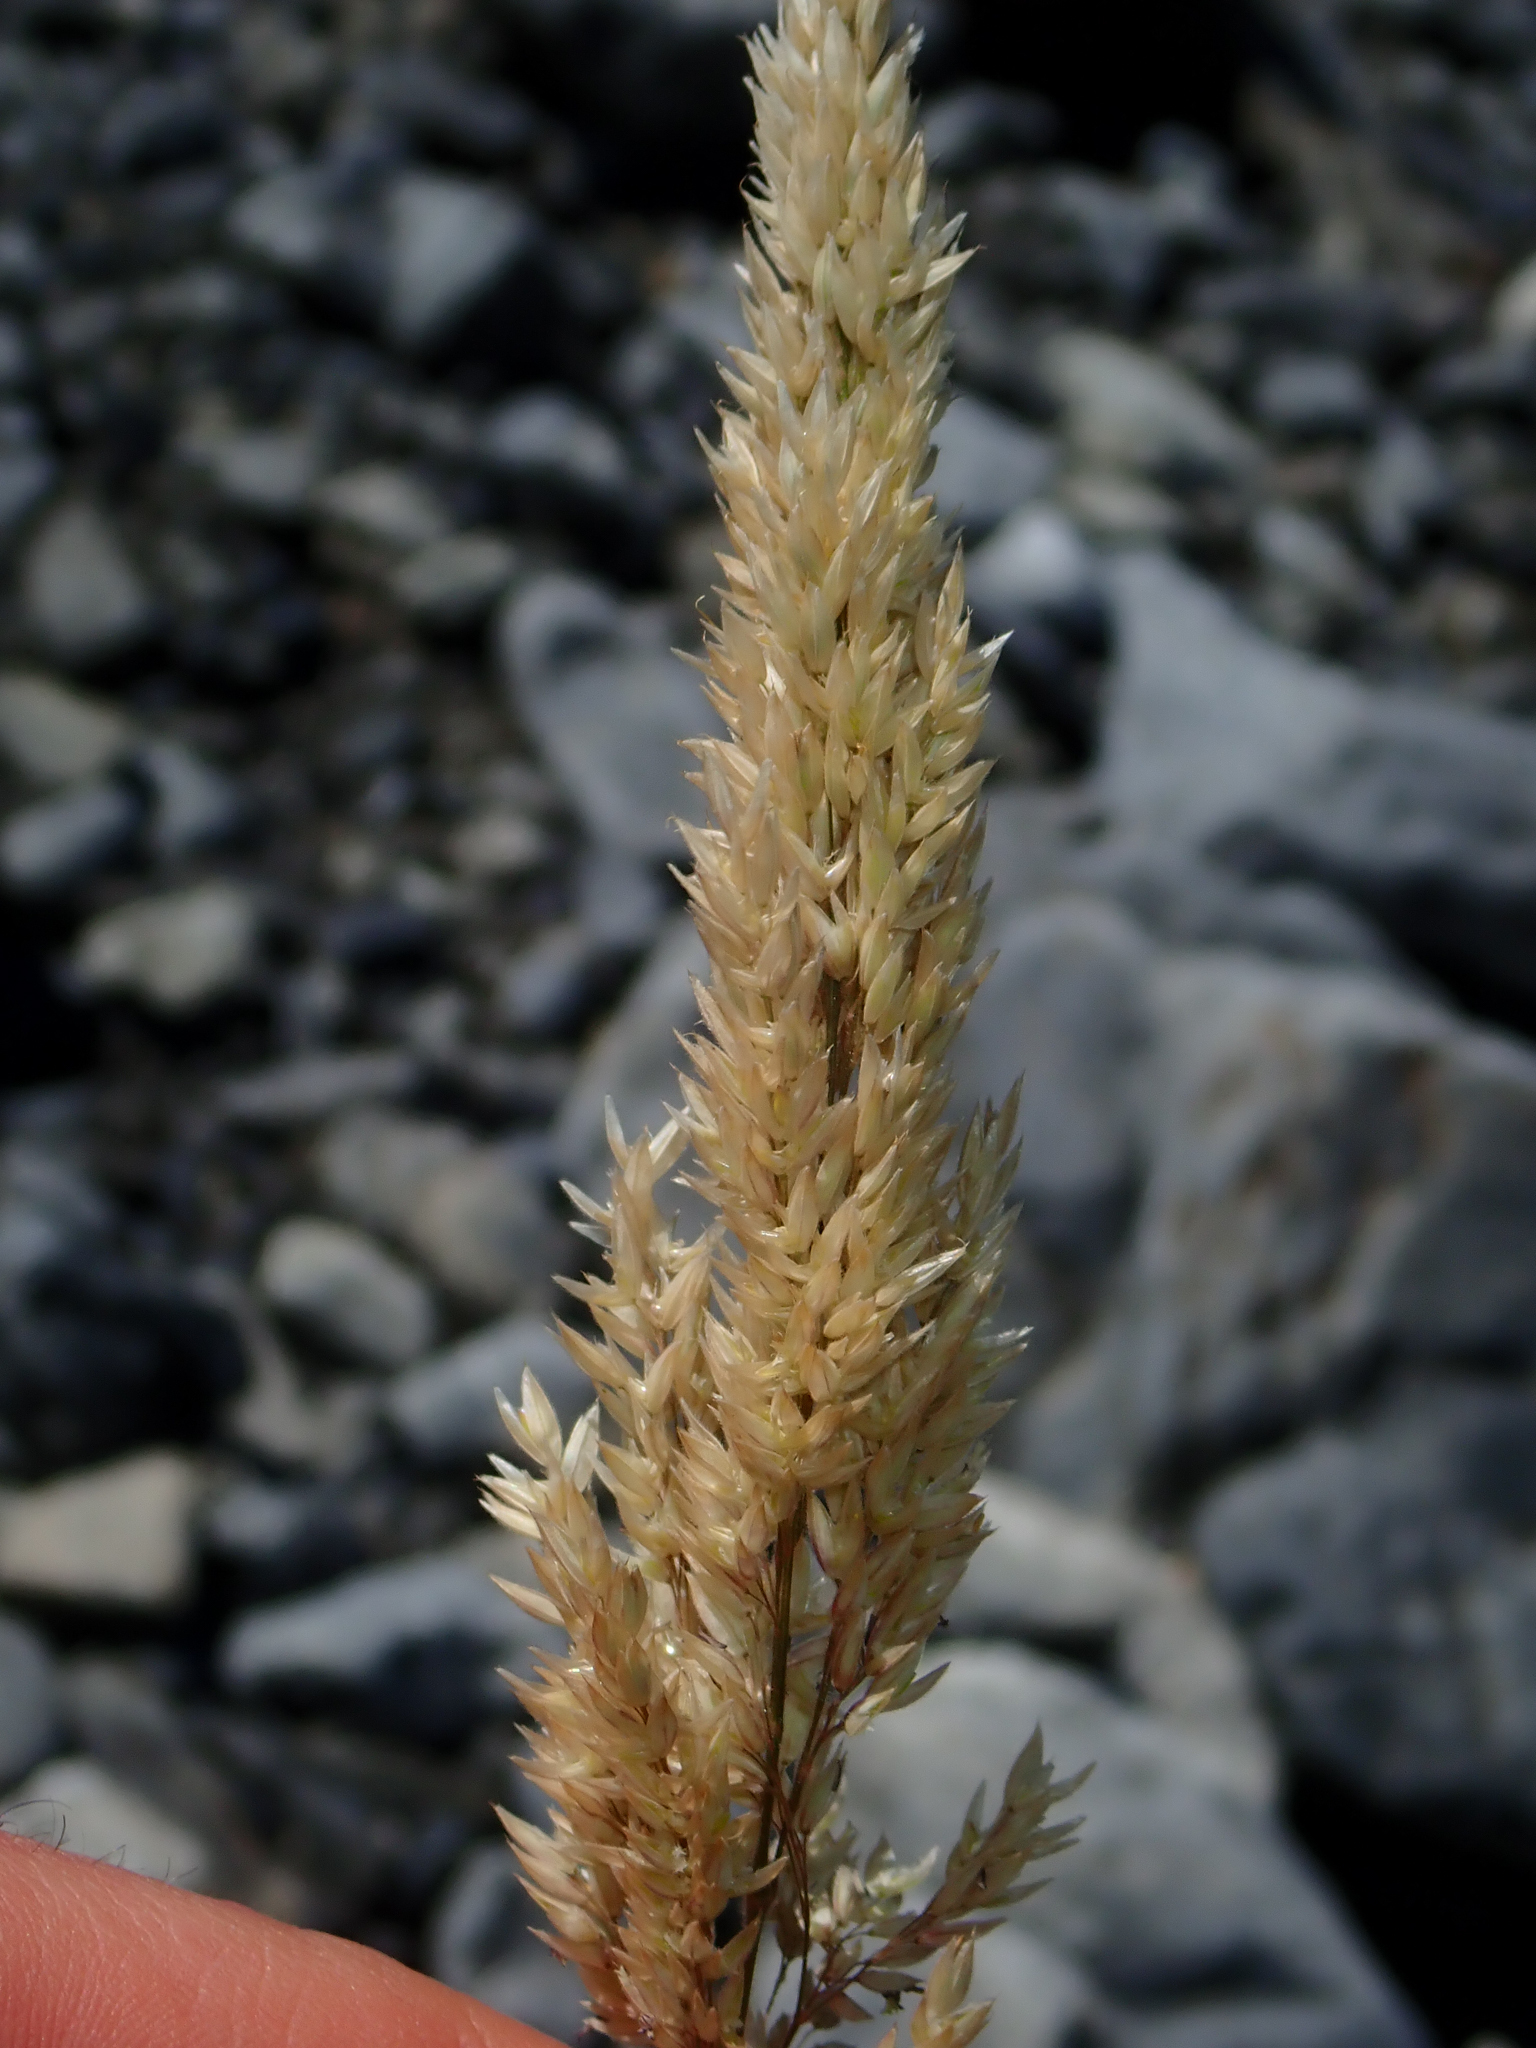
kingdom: Plantae
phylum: Tracheophyta
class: Liliopsida
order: Poales
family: Poaceae
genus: Holcus
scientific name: Holcus lanatus
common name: Yorkshire-fog
